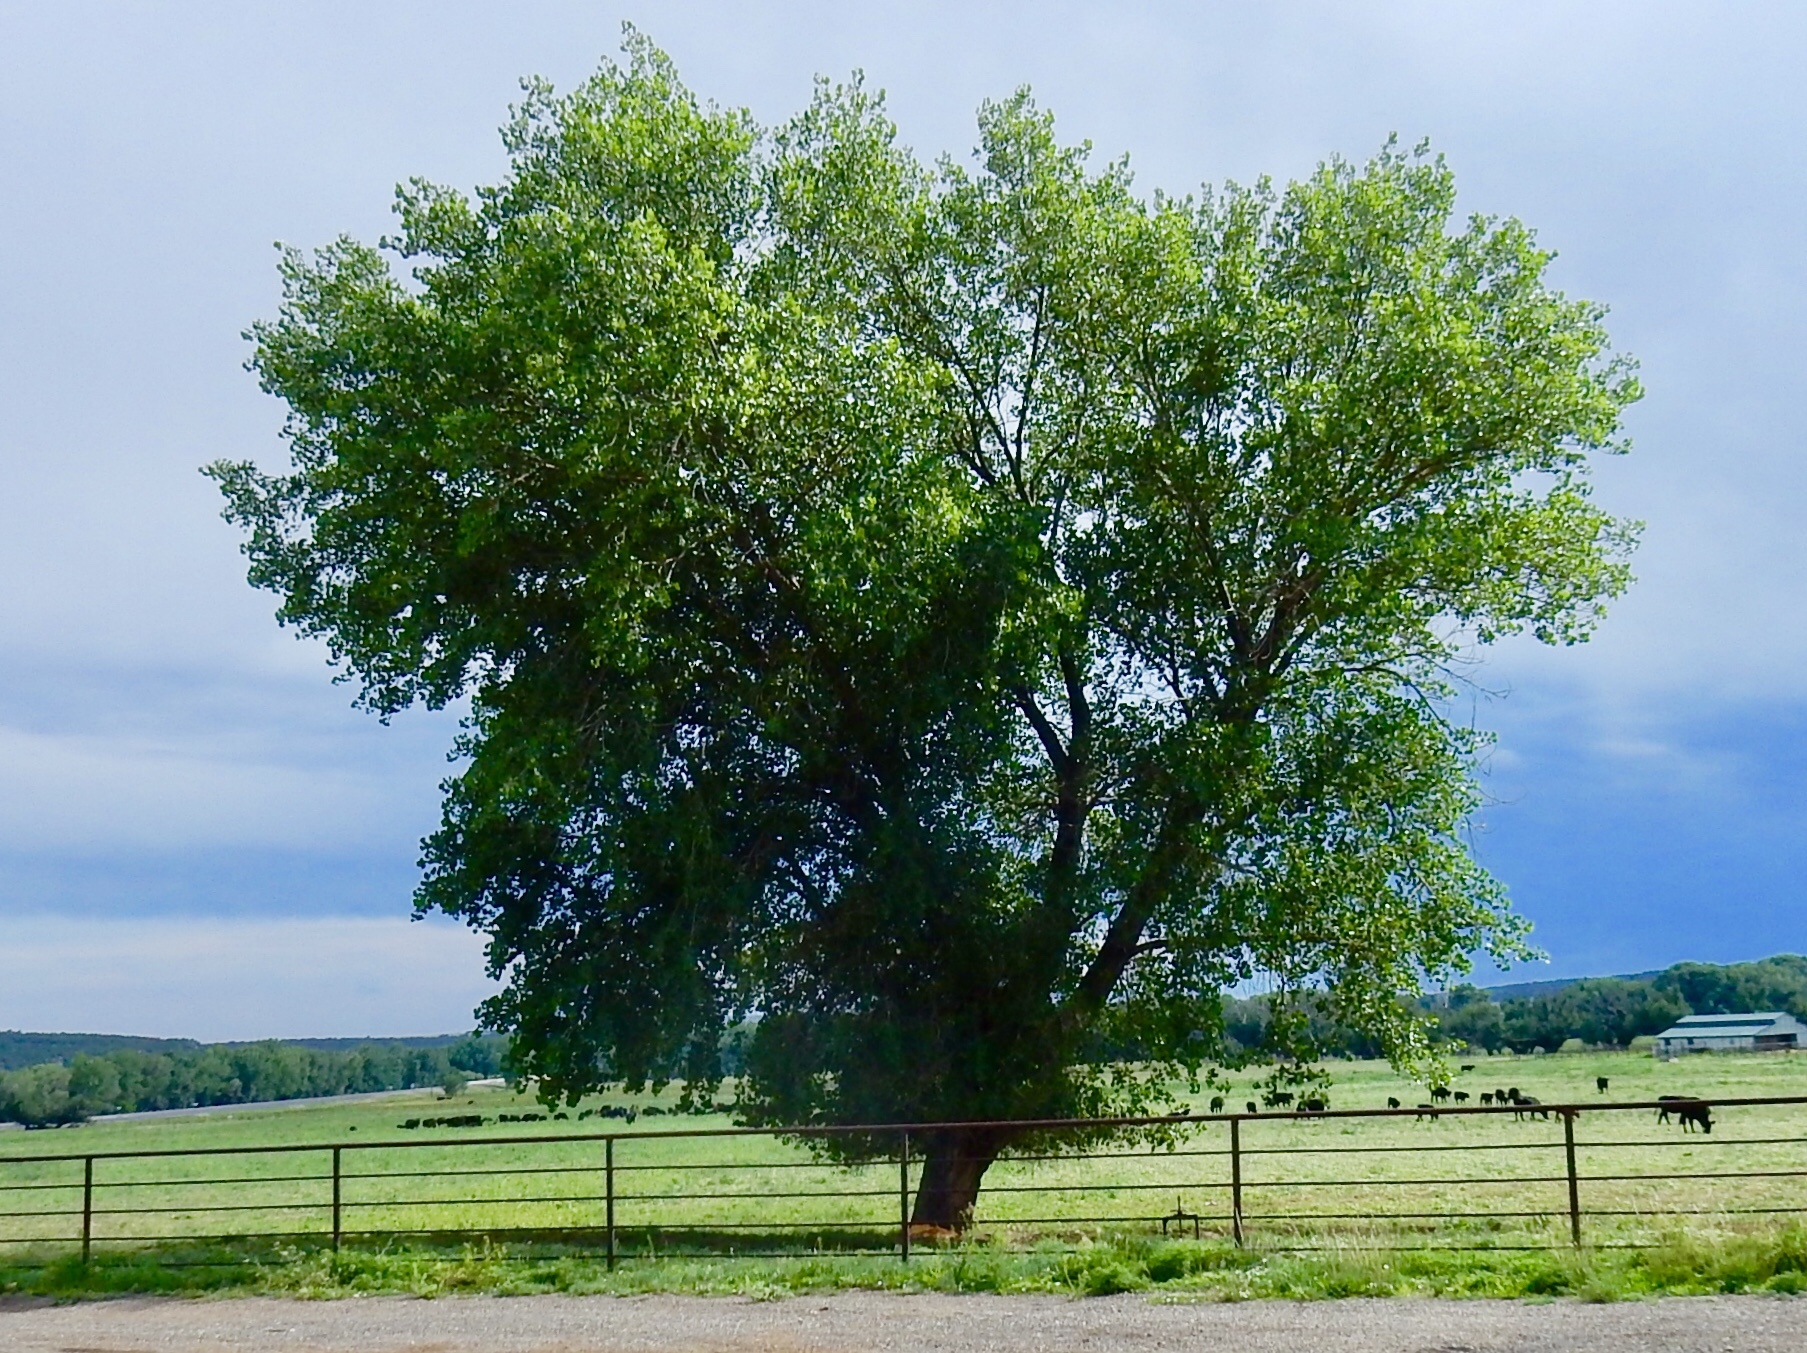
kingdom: Plantae
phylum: Tracheophyta
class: Magnoliopsida
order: Malpighiales
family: Salicaceae
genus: Populus
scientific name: Populus fremontii
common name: Fremont's cottonwood
